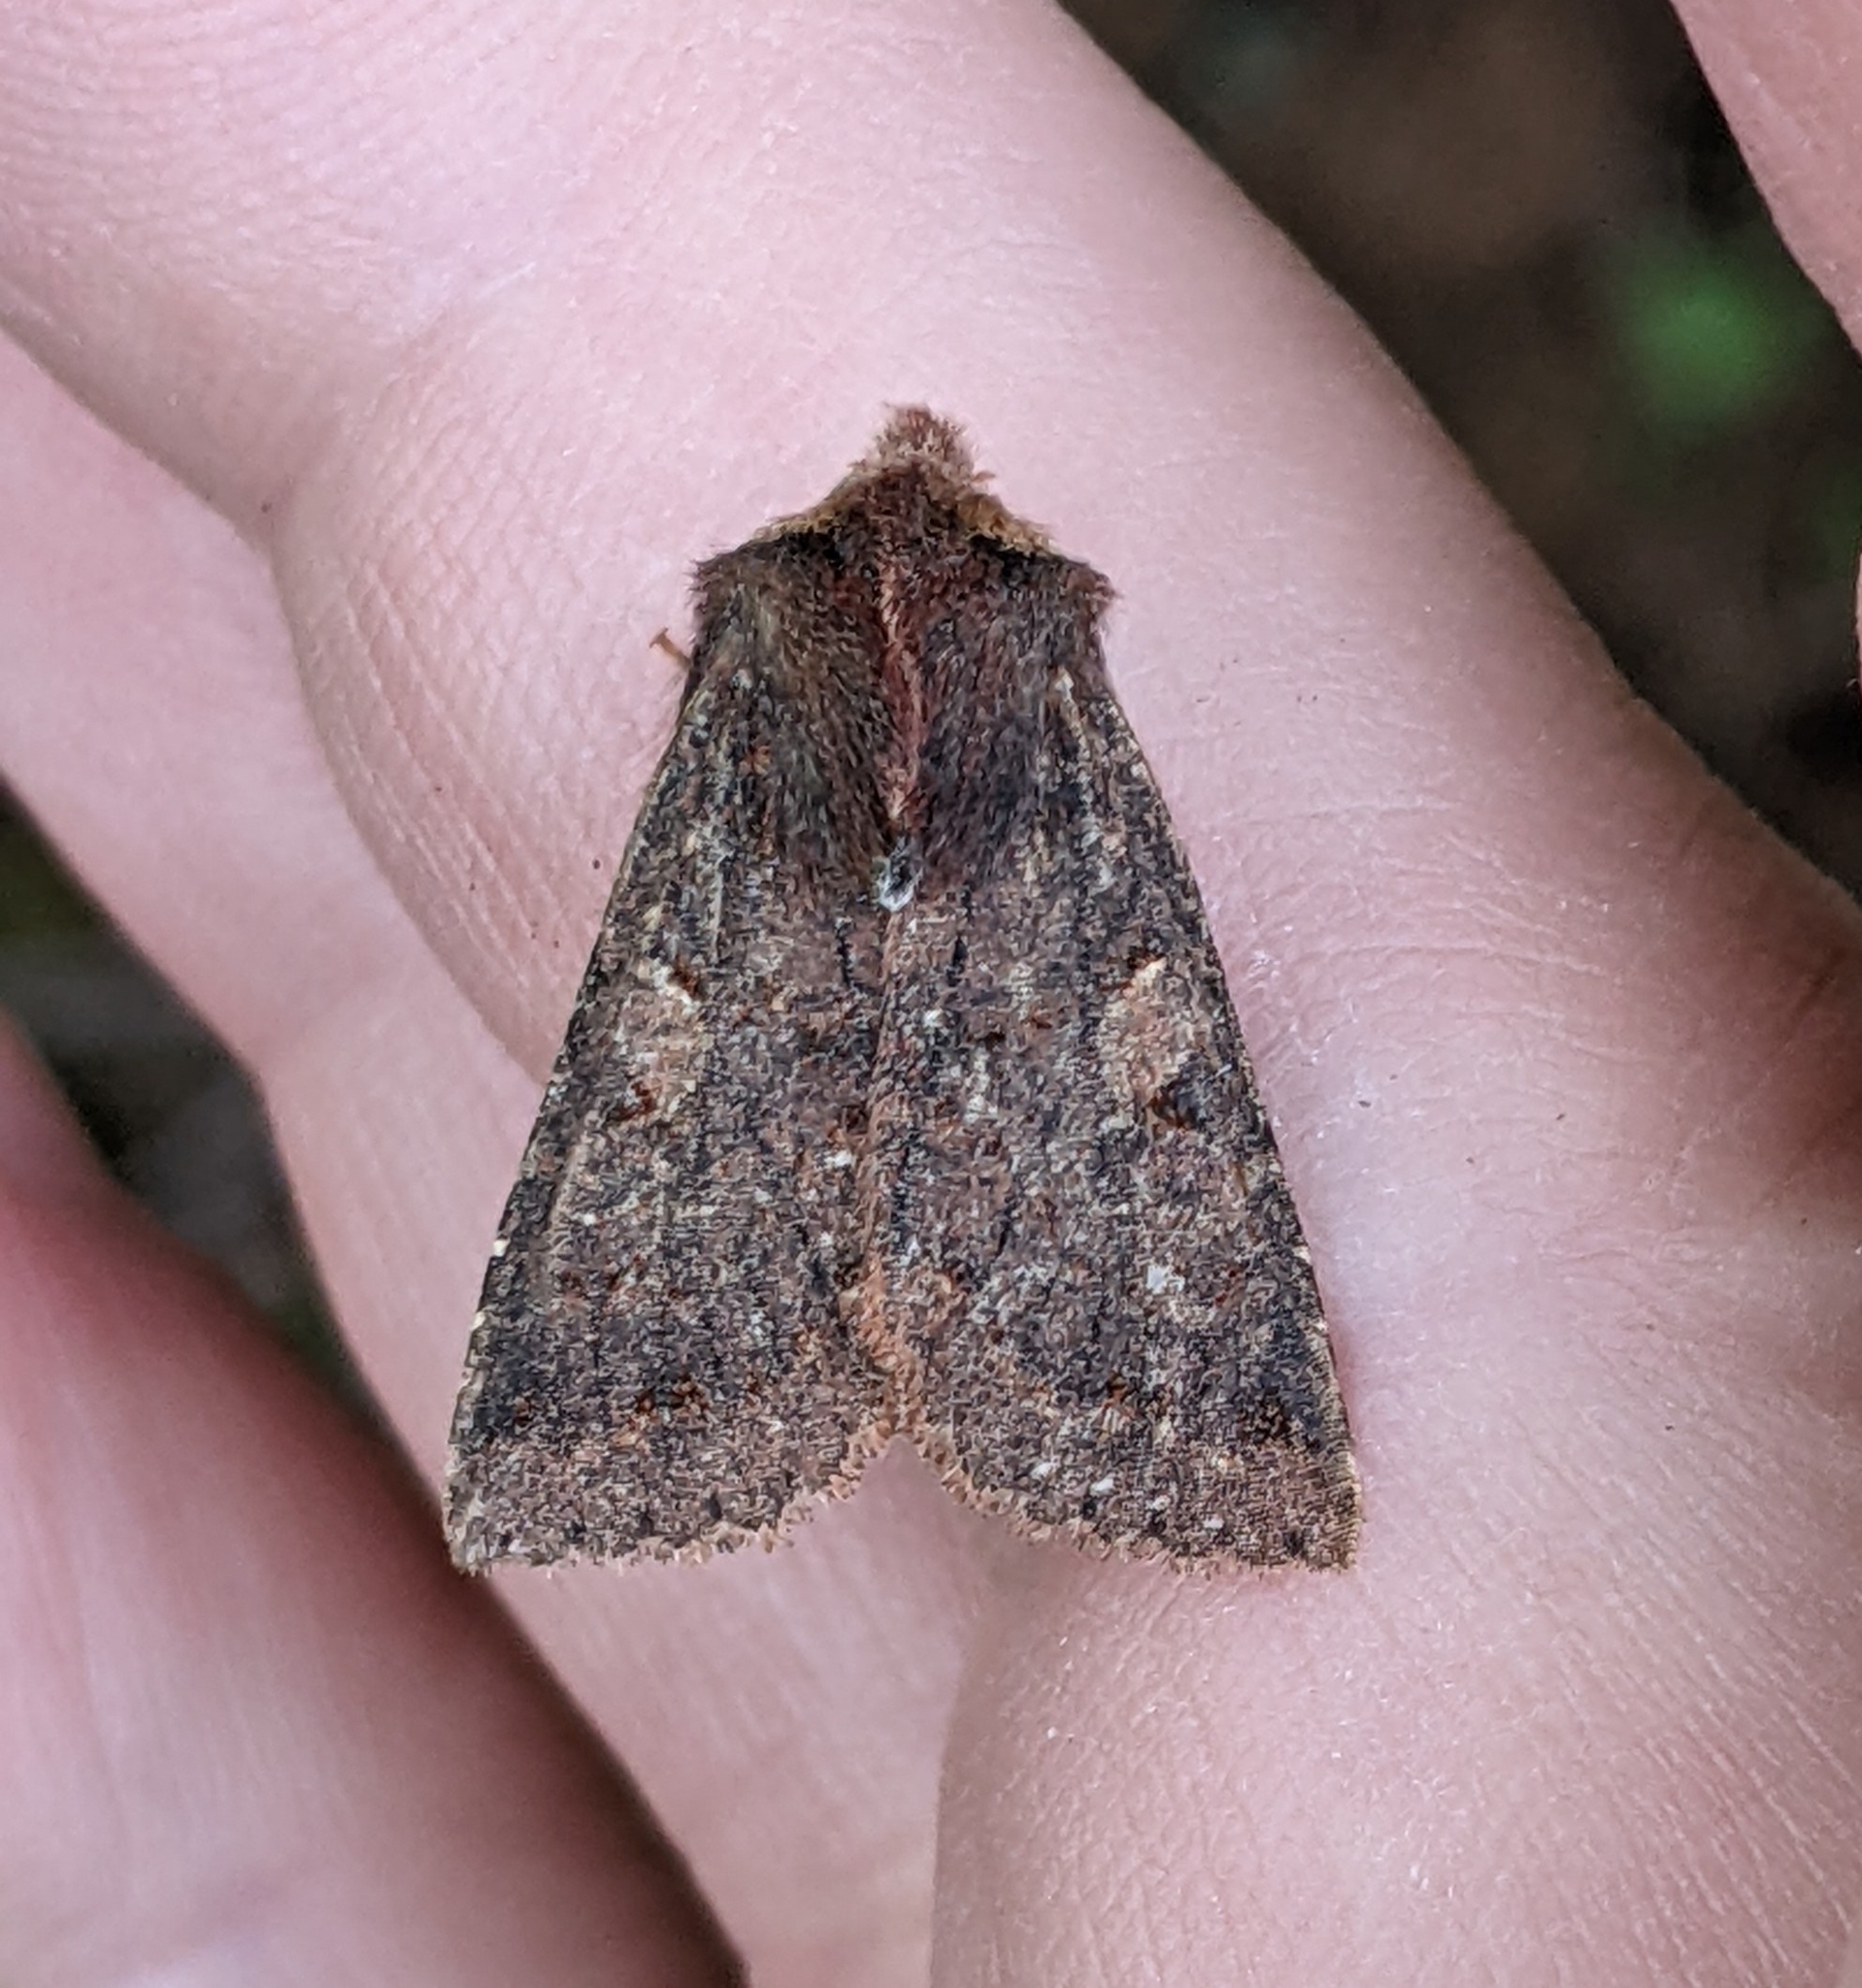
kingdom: Animalia
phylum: Arthropoda
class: Insecta
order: Lepidoptera
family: Noctuidae
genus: Orthosia
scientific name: Orthosia praeses
